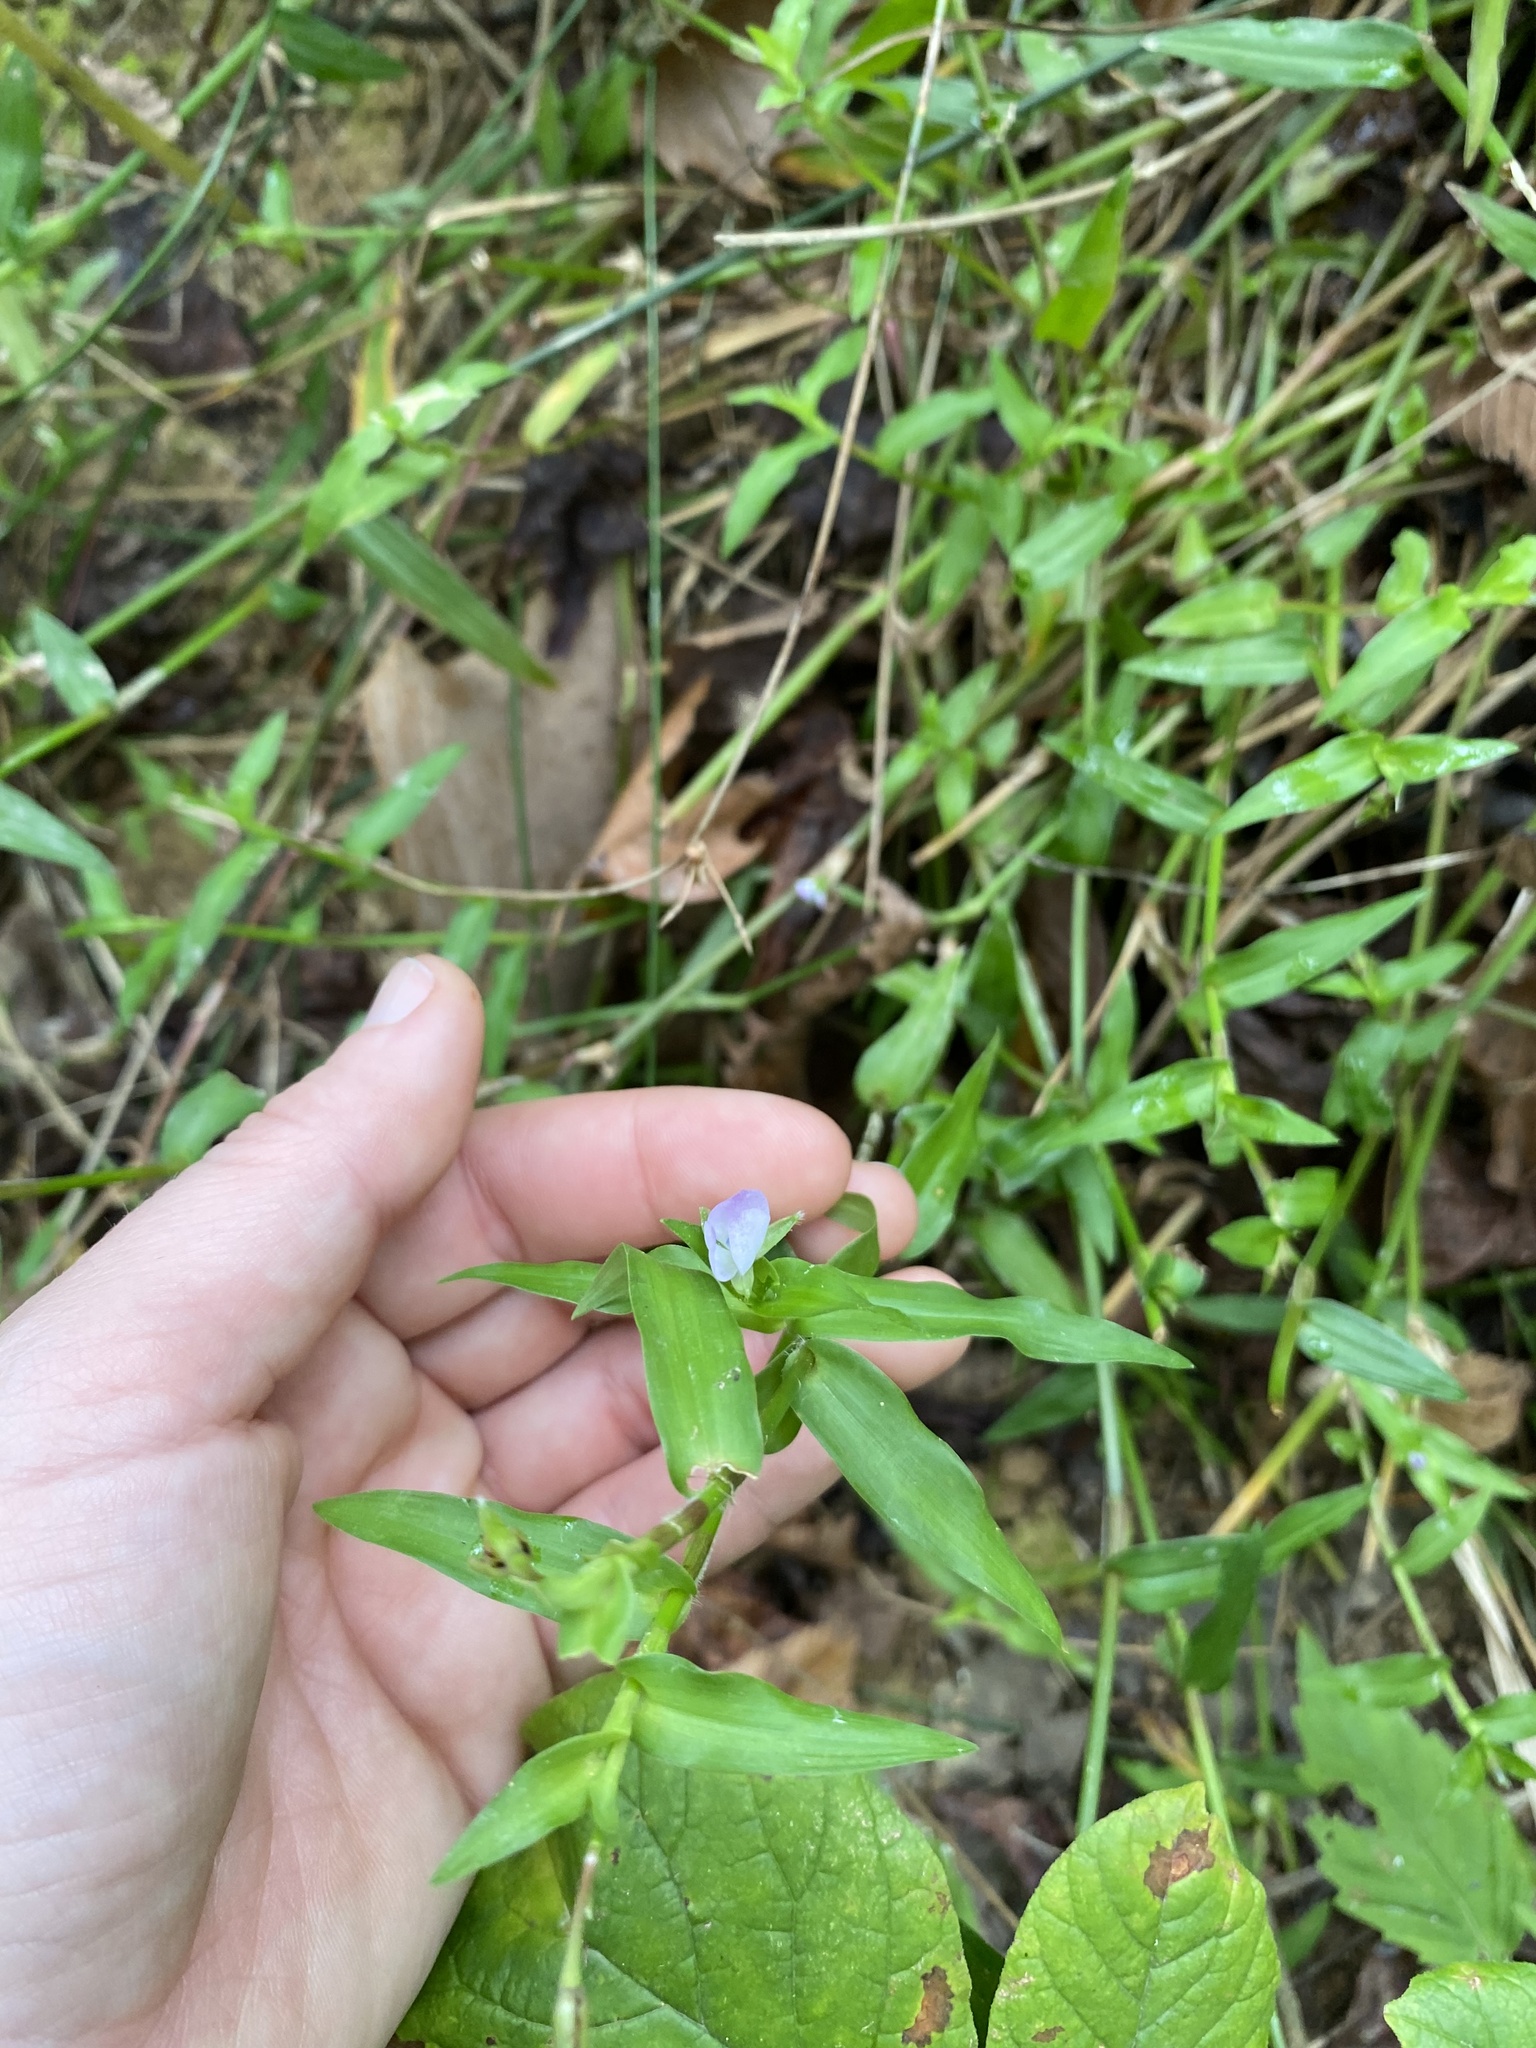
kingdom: Plantae
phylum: Tracheophyta
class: Liliopsida
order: Commelinales
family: Commelinaceae
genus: Murdannia
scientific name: Murdannia keisak
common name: Wartremoving herb
